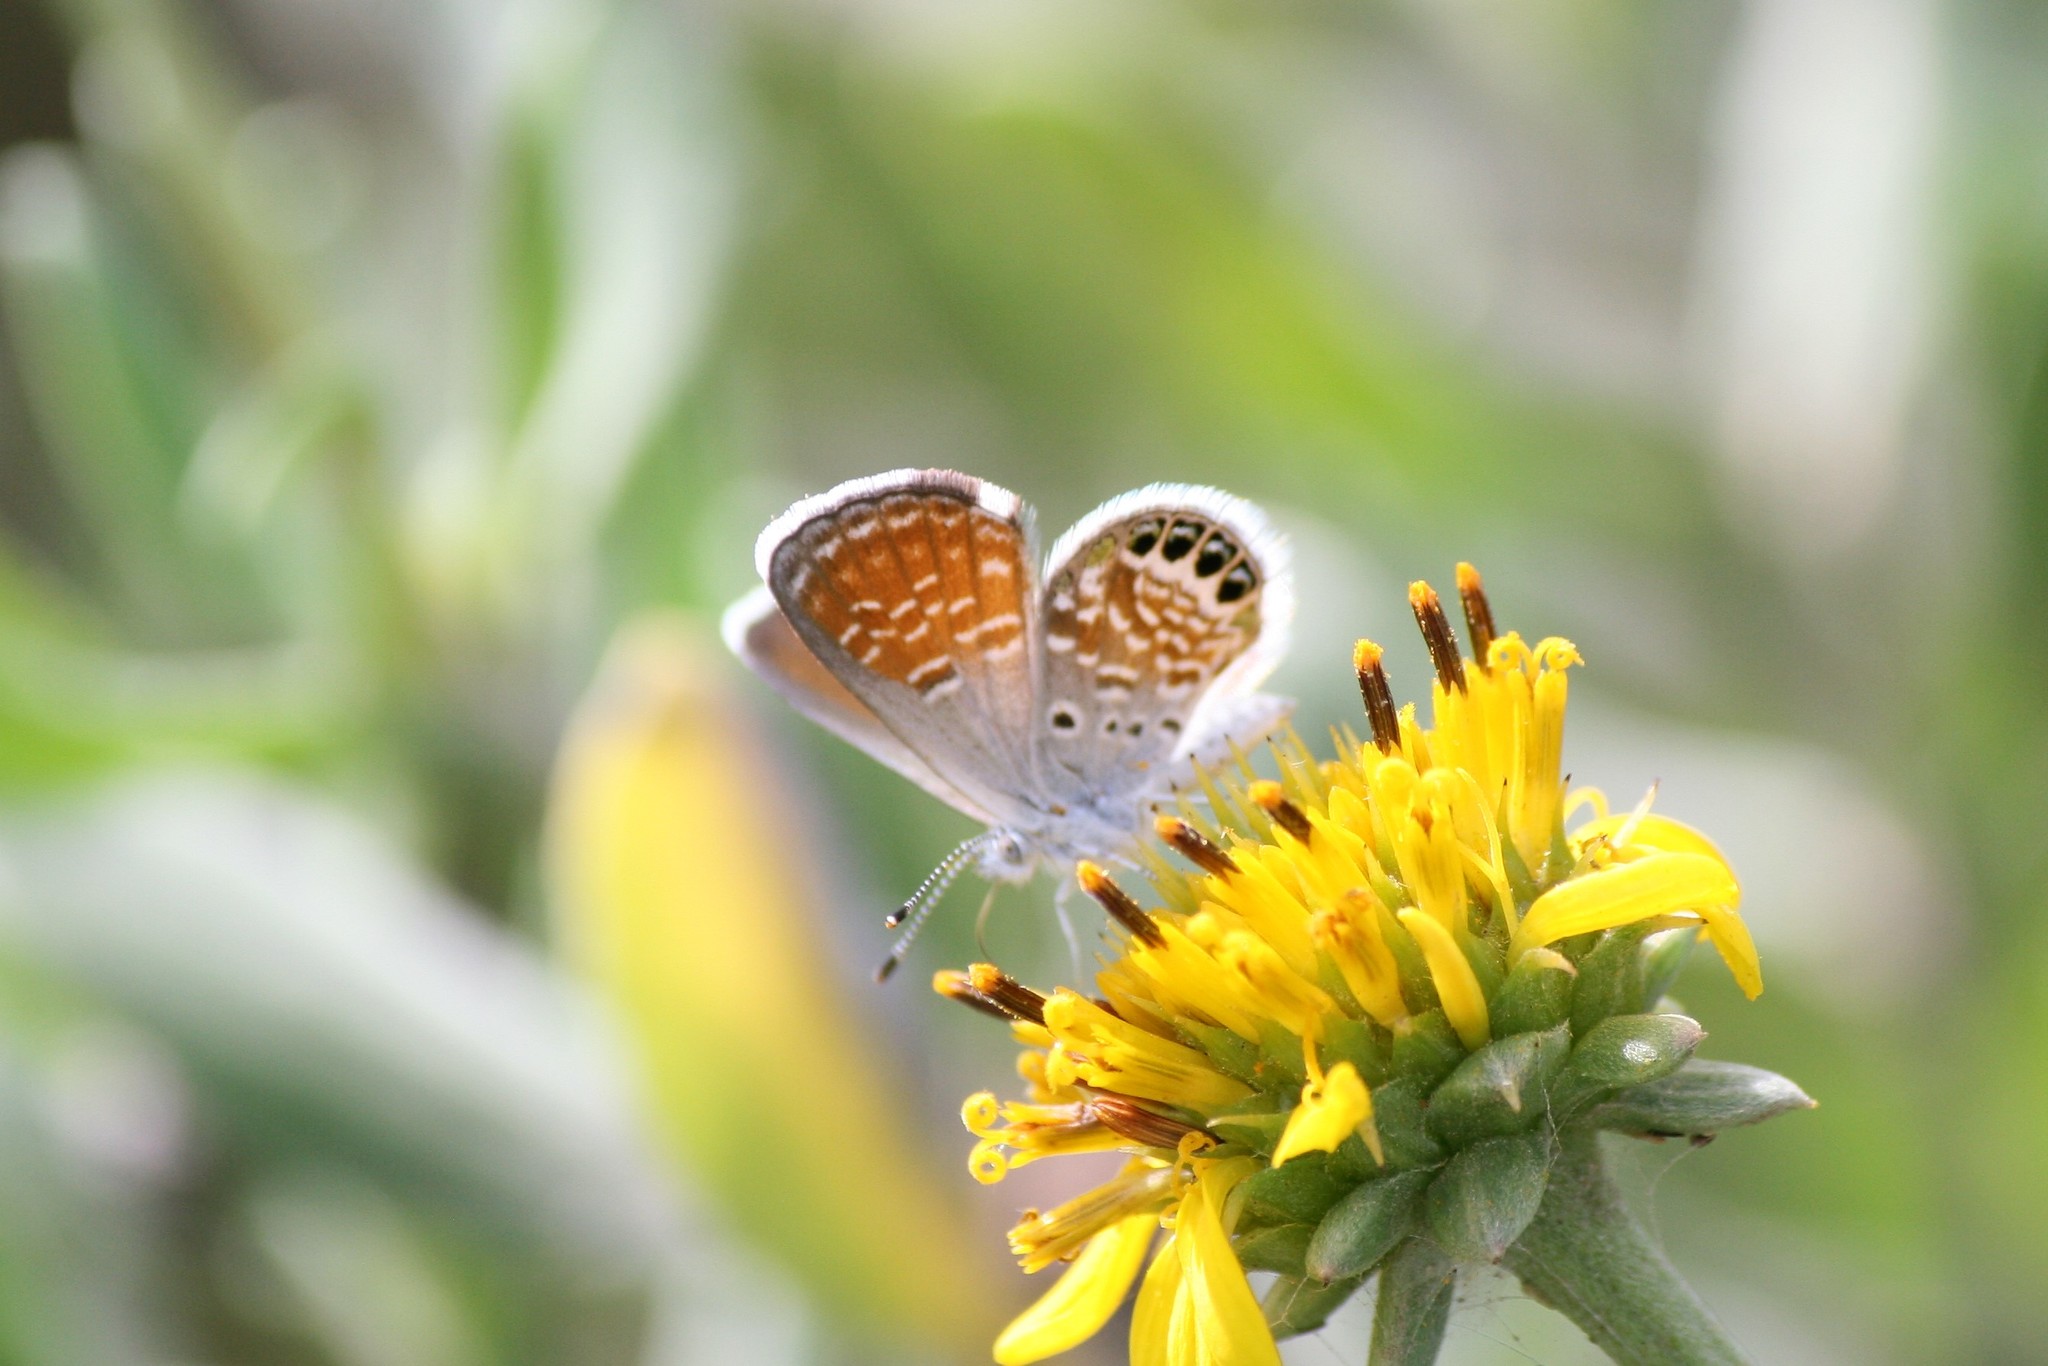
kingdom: Animalia
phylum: Arthropoda
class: Insecta
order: Lepidoptera
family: Lycaenidae
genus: Brephidium
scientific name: Brephidium exilis
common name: Pygmy blue
